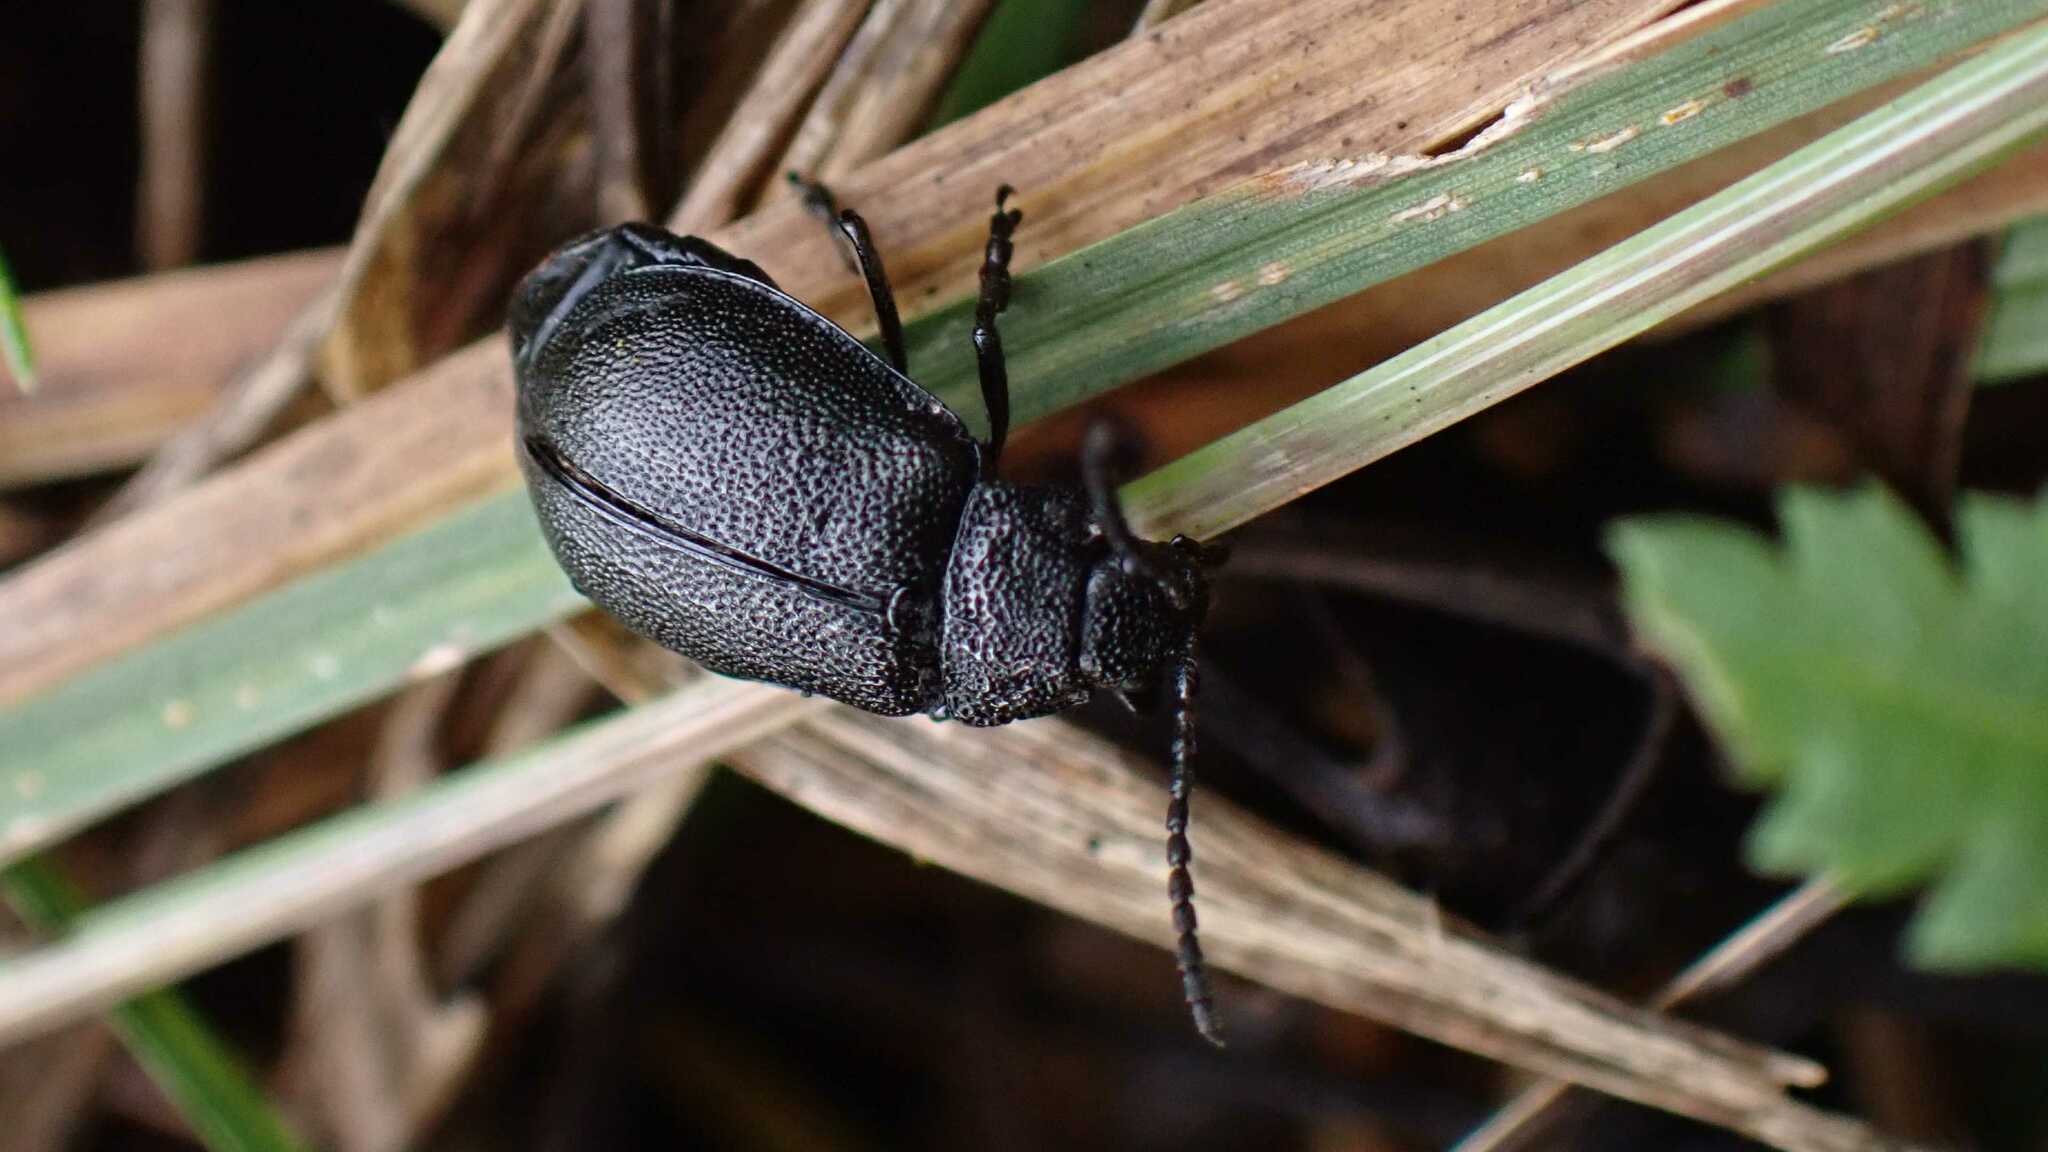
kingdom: Animalia
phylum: Arthropoda
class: Insecta
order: Coleoptera
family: Chrysomelidae
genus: Galeruca
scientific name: Galeruca tanaceti
